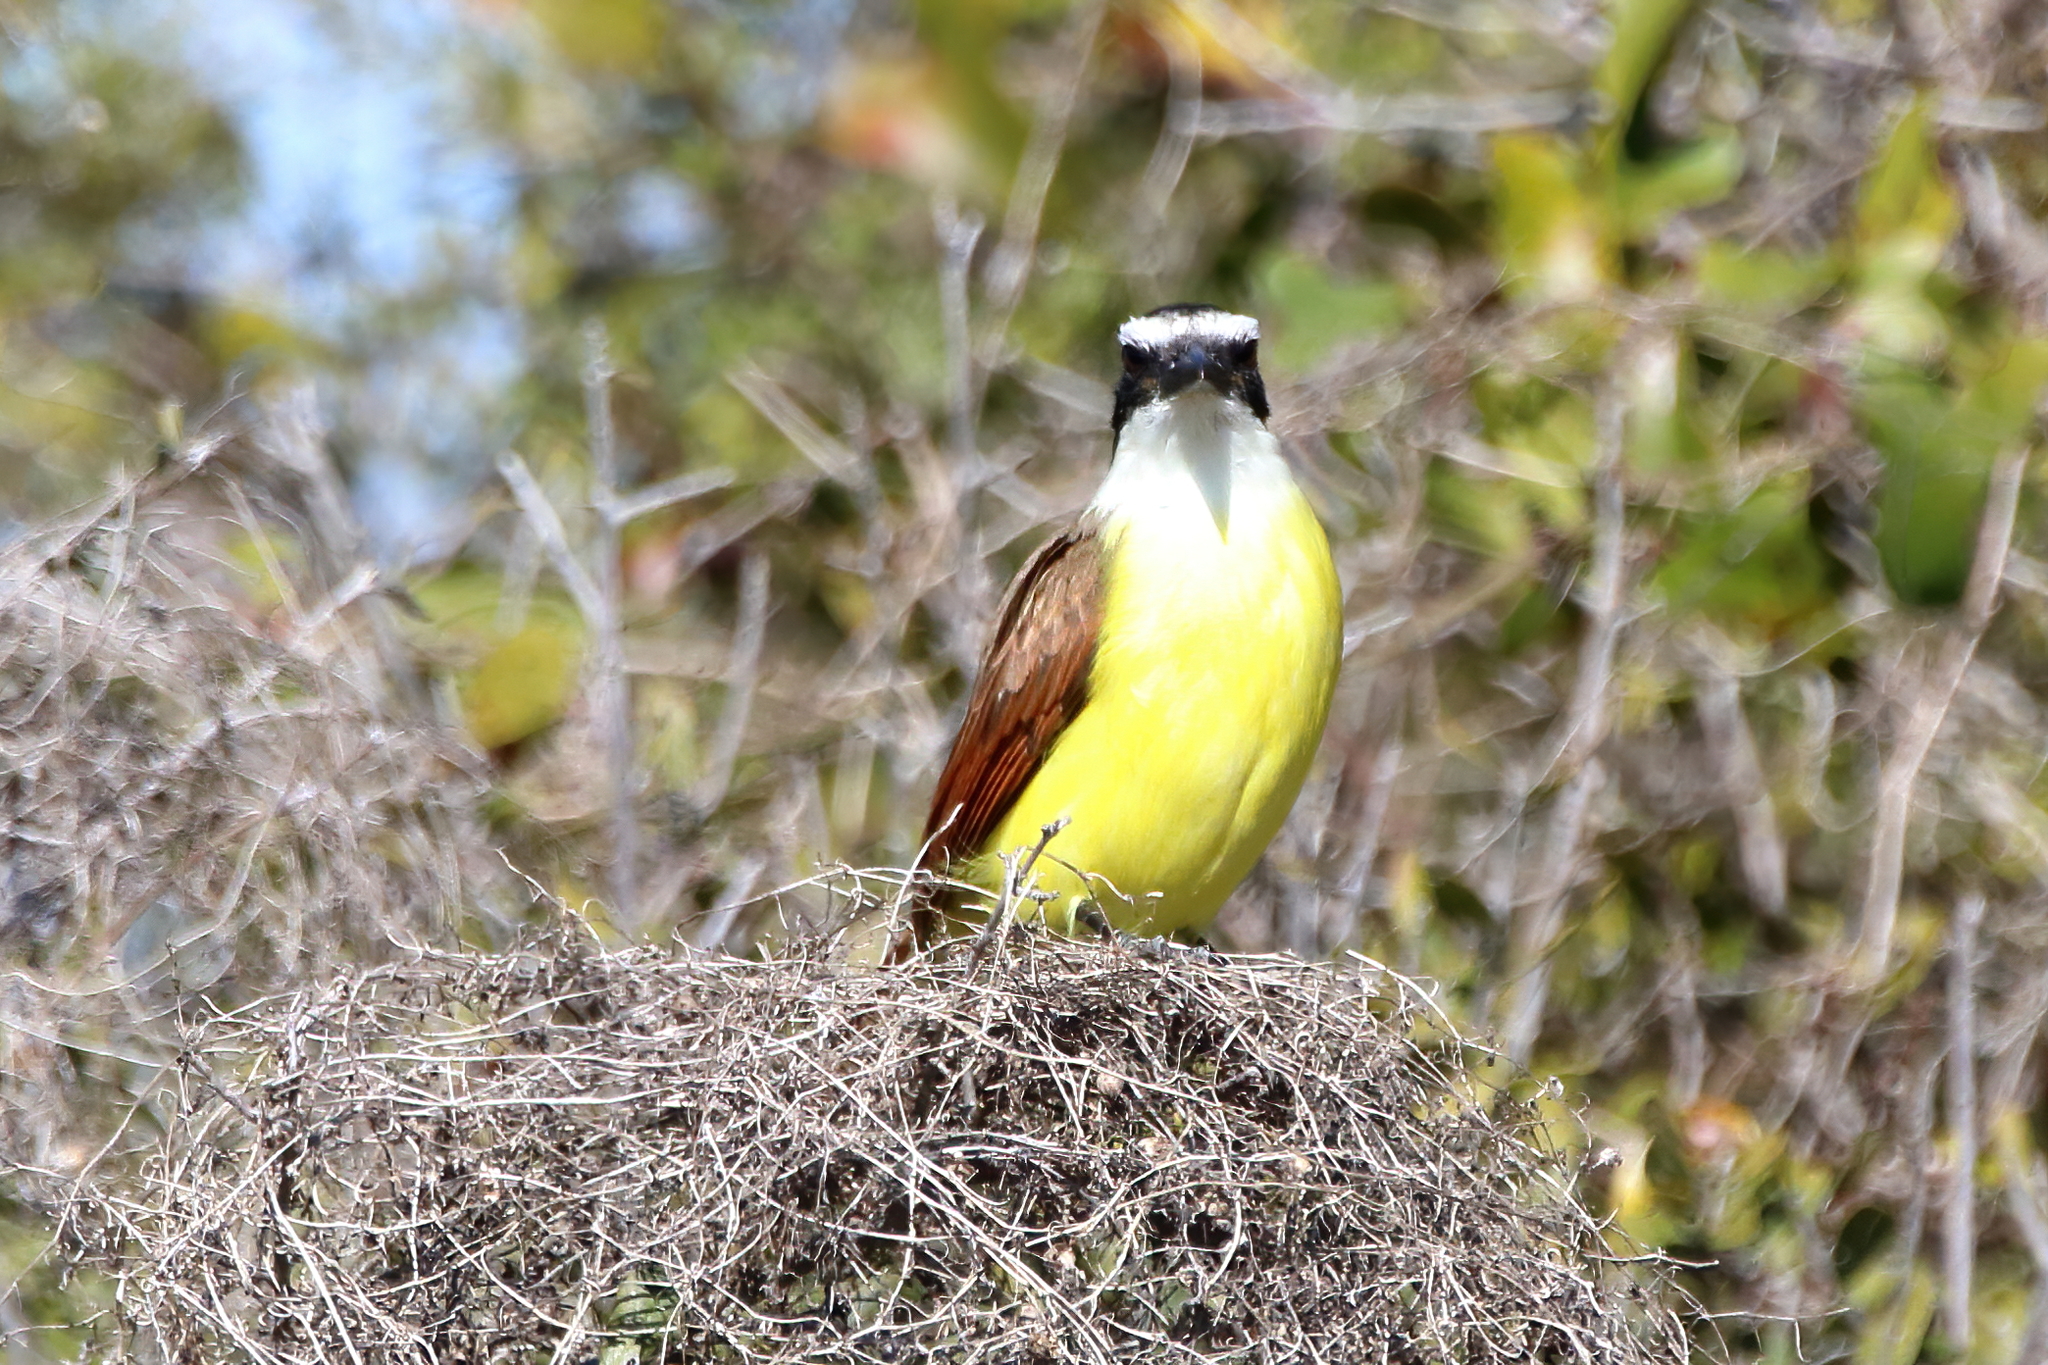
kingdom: Animalia
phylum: Chordata
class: Aves
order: Passeriformes
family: Tyrannidae
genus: Pitangus
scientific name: Pitangus sulphuratus
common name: Great kiskadee
